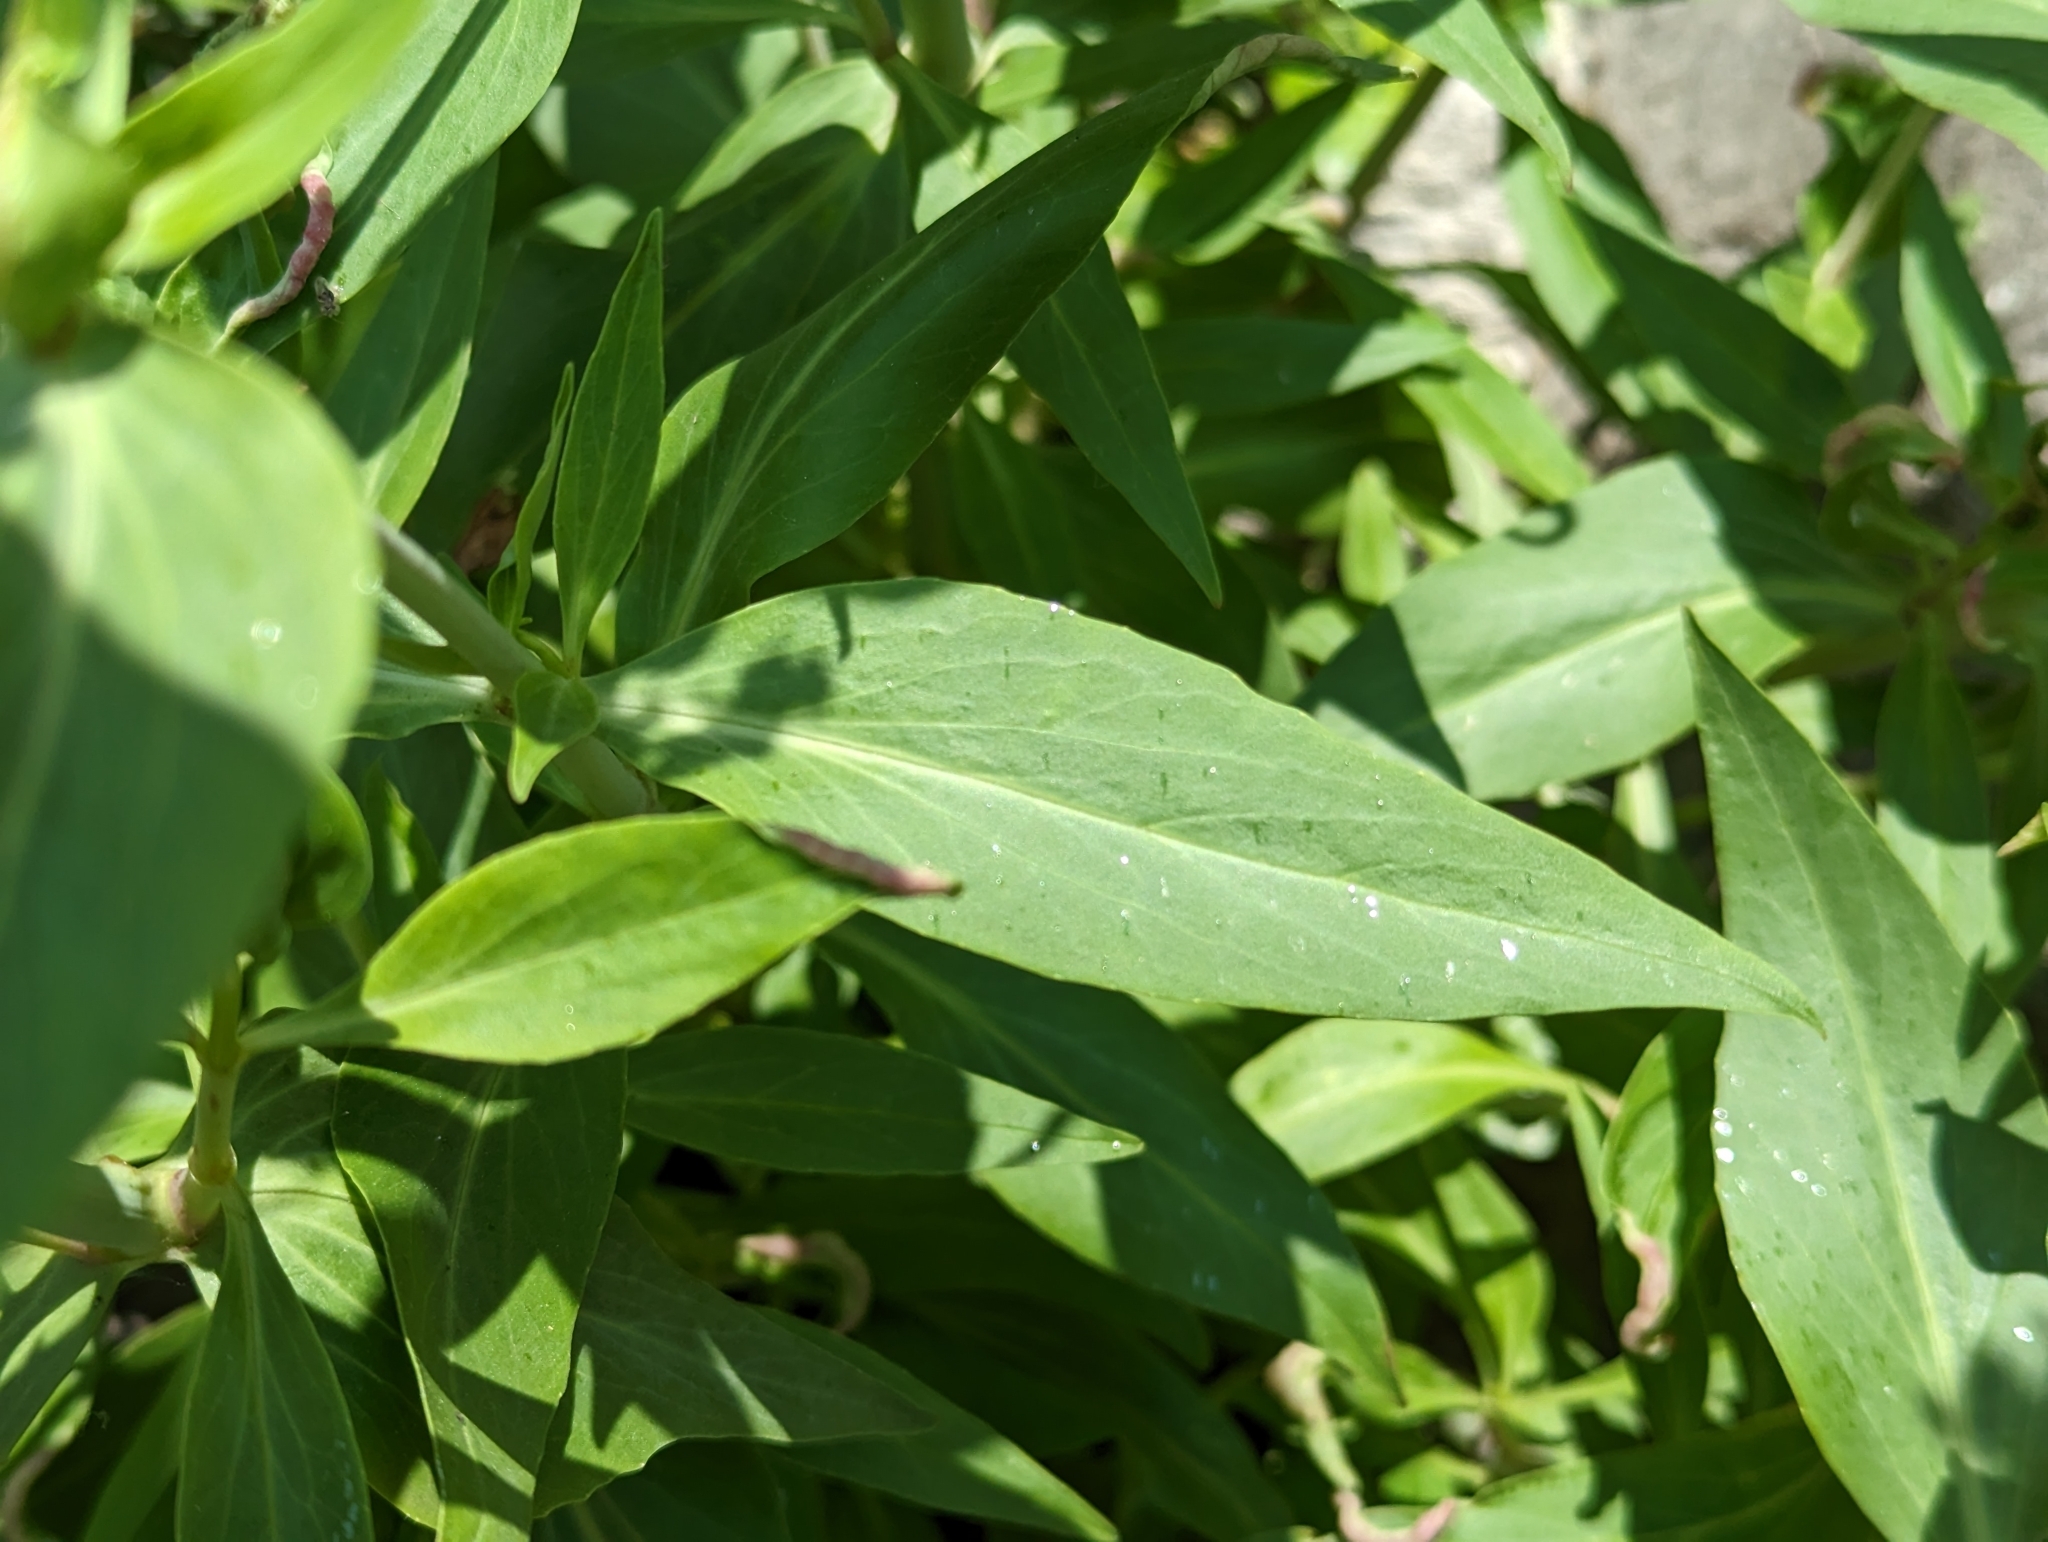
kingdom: Plantae
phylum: Tracheophyta
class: Magnoliopsida
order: Dipsacales
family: Caprifoliaceae
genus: Centranthus
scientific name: Centranthus ruber
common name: Red valerian
